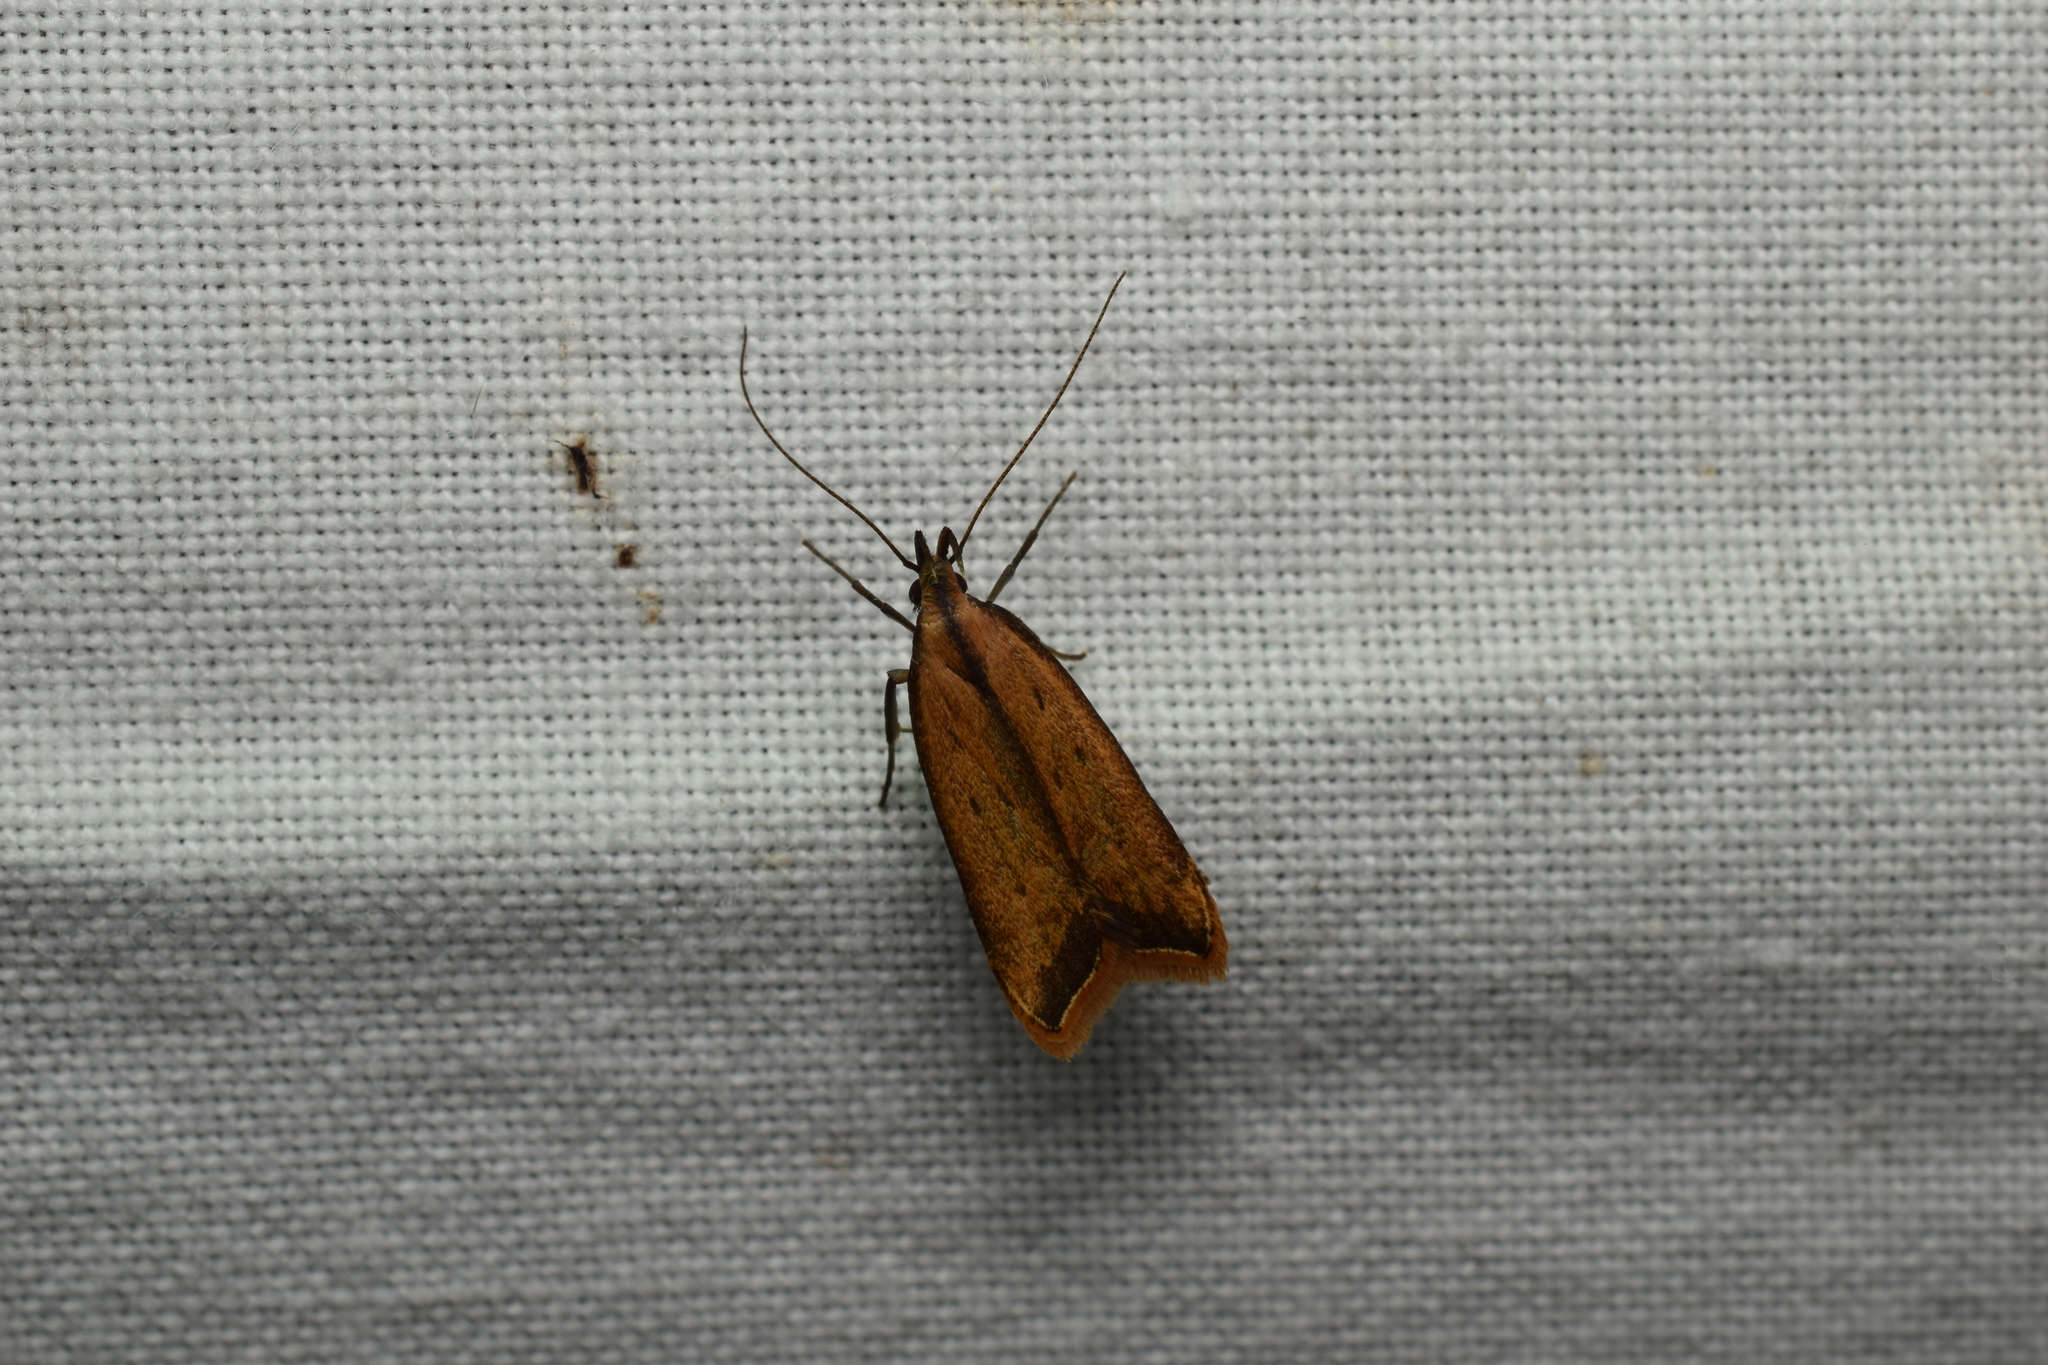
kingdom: Animalia
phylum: Arthropoda
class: Insecta
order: Lepidoptera
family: Gelechiidae
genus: Dichomeris
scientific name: Dichomeris heriguronis
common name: Black-edged dichomeris moth
